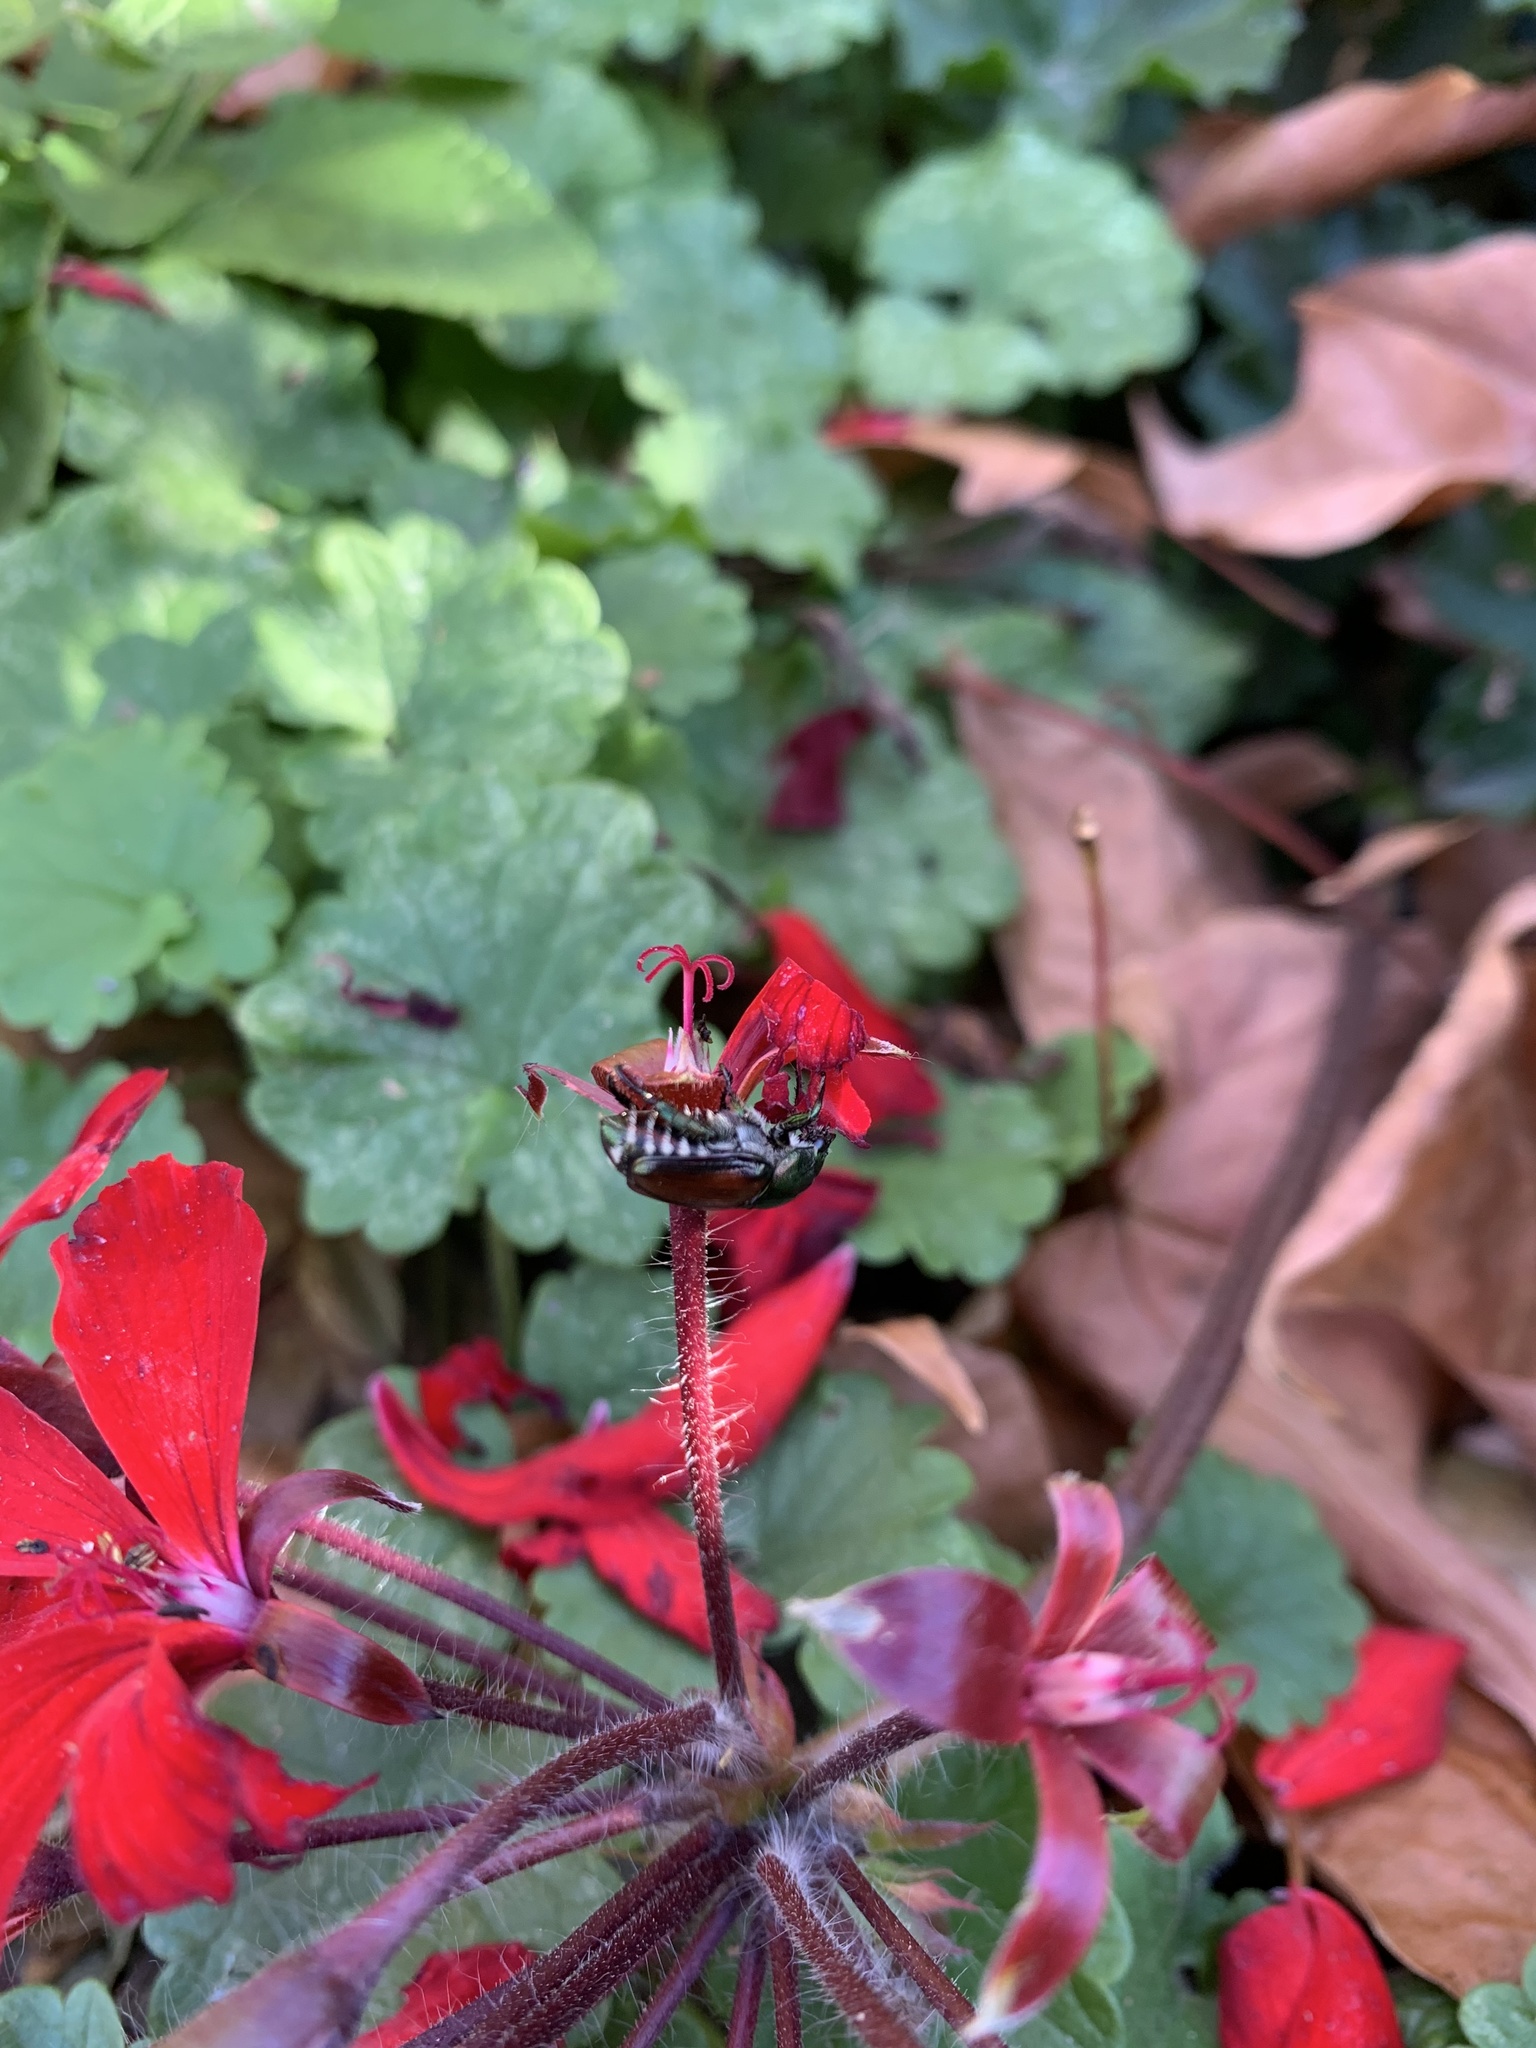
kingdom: Animalia
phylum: Arthropoda
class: Insecta
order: Coleoptera
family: Scarabaeidae
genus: Popillia
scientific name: Popillia japonica
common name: Japanese beetle
